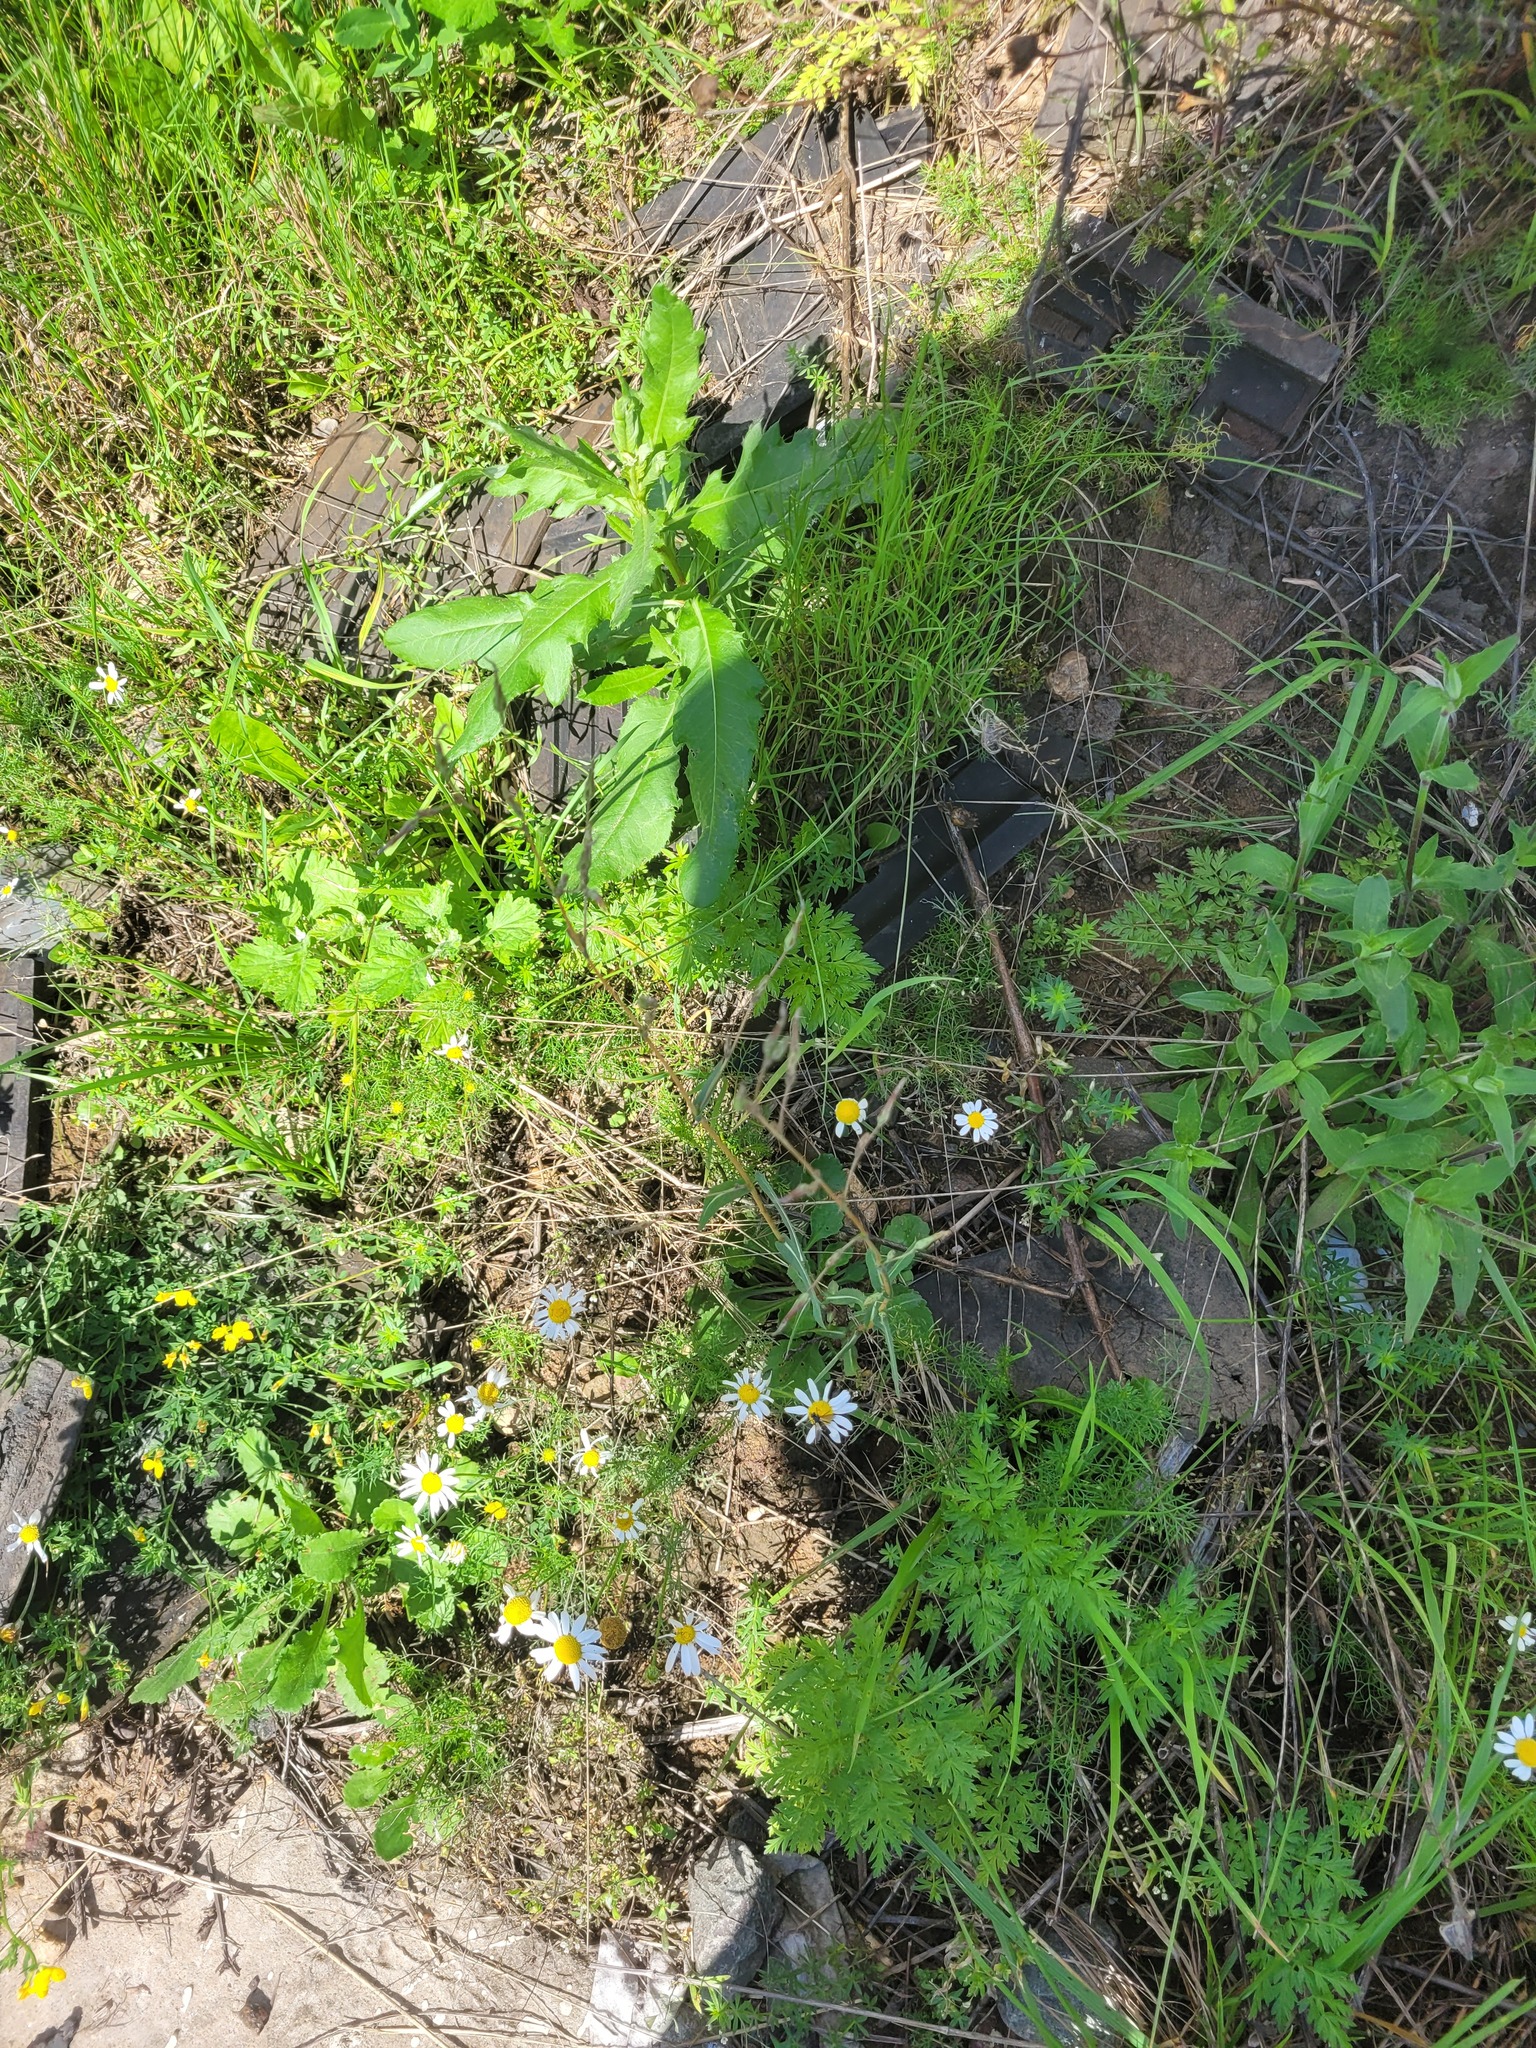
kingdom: Plantae
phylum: Tracheophyta
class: Magnoliopsida
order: Asterales
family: Asteraceae
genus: Lactuca
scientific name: Lactuca serriola
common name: Prickly lettuce
